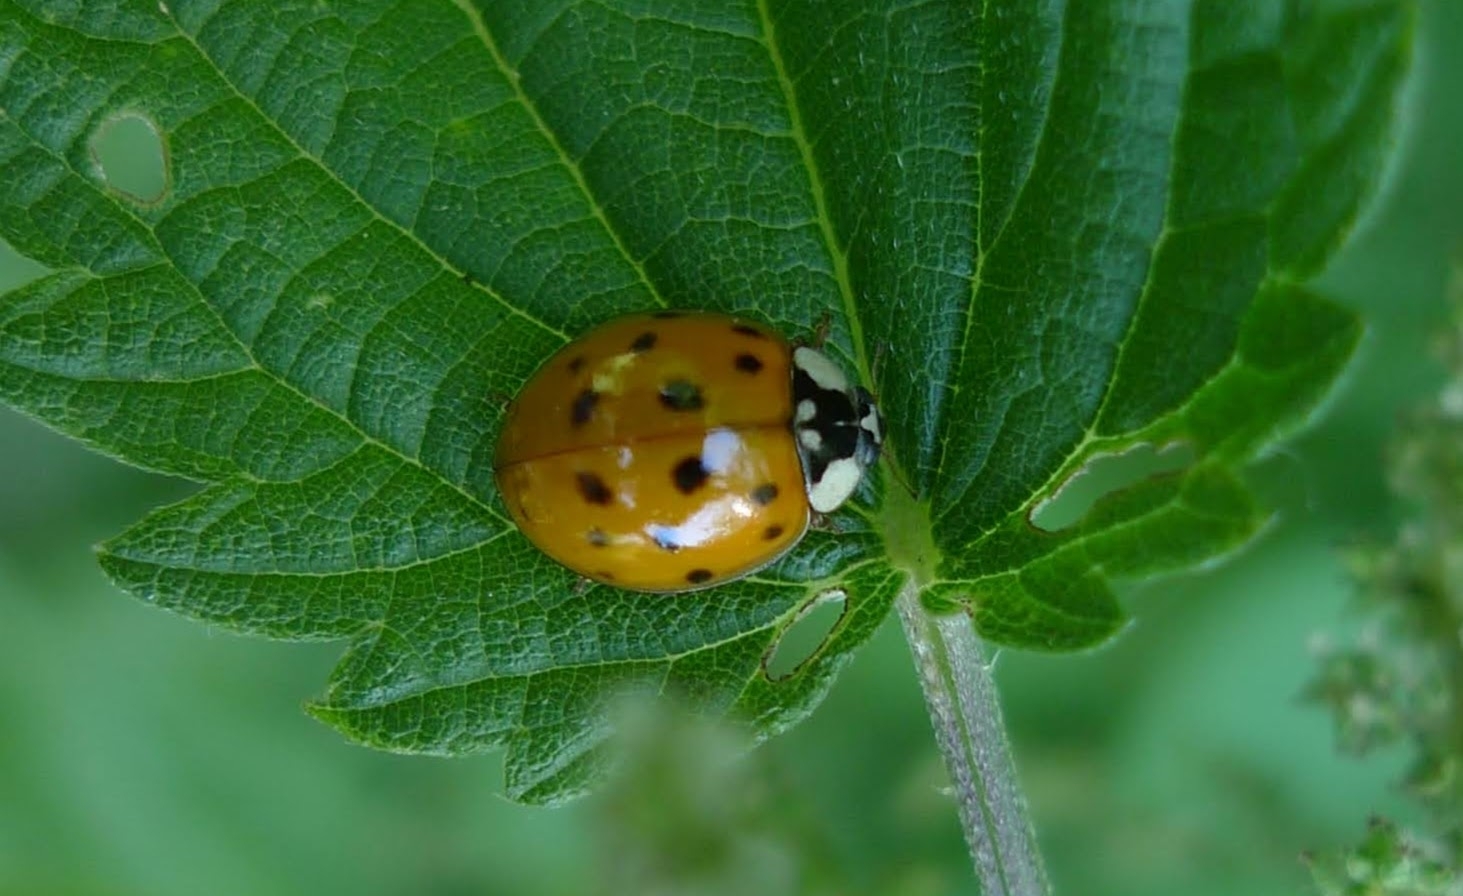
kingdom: Animalia
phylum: Arthropoda
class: Insecta
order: Coleoptera
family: Coccinellidae
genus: Harmonia
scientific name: Harmonia axyridis
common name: Harlequin ladybird
